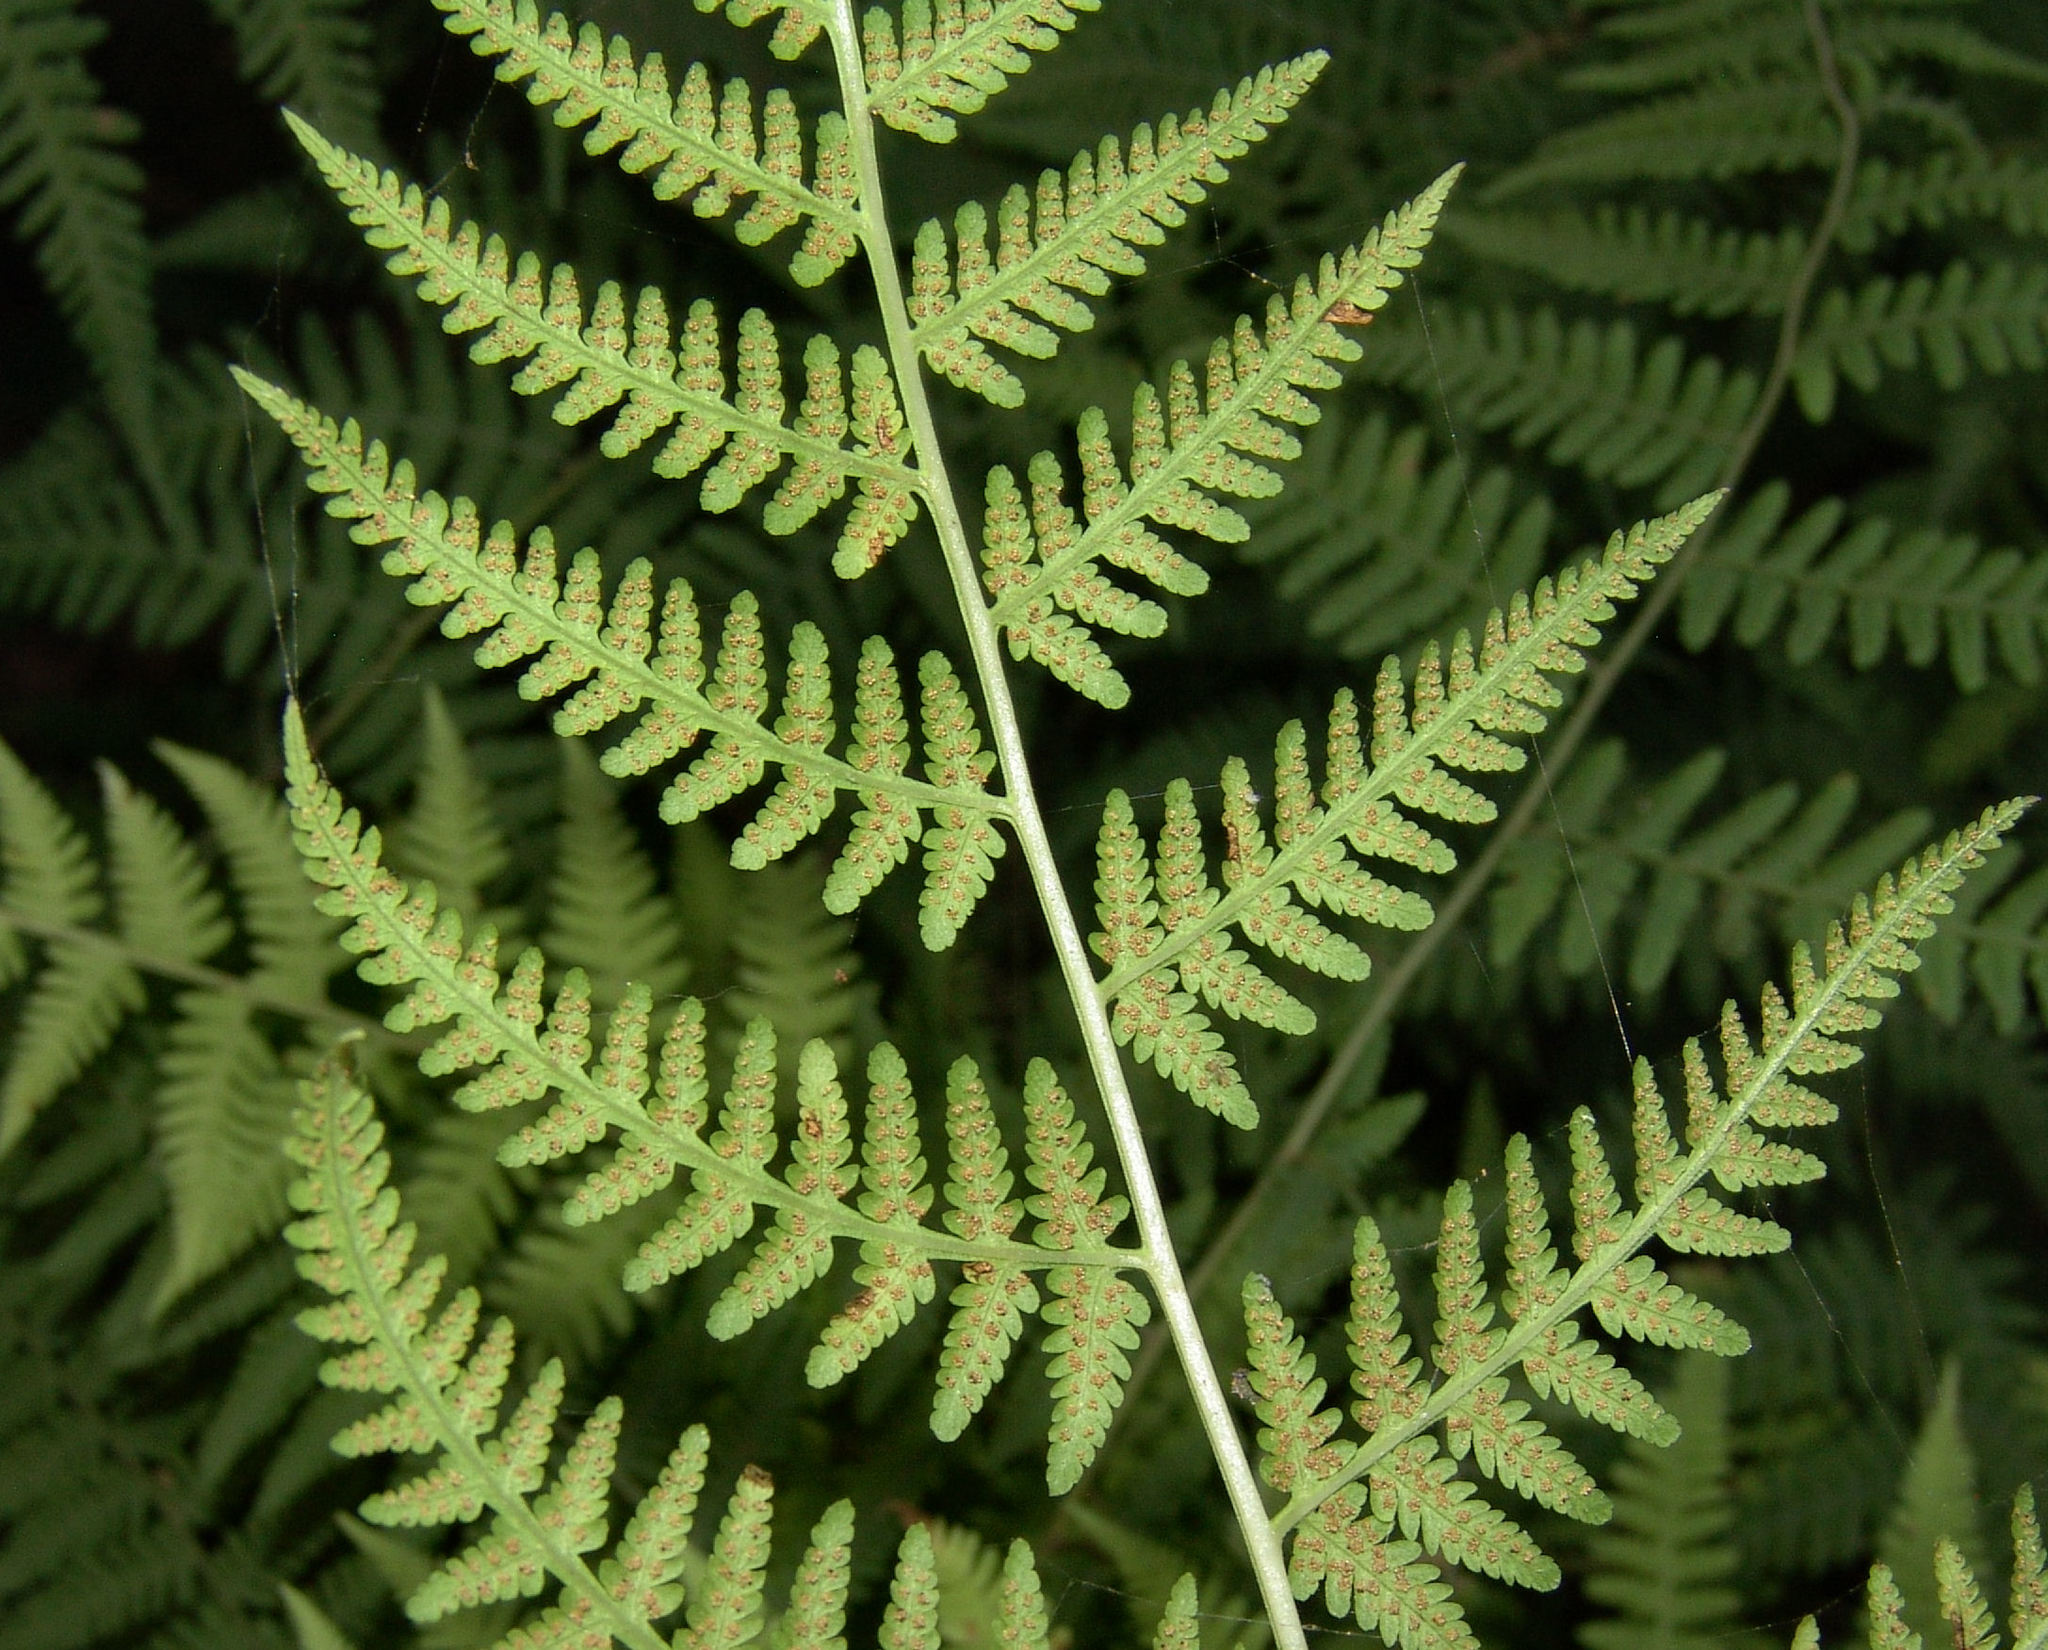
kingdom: Plantae
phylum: Tracheophyta
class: Polypodiopsida
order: Polypodiales
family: Thelypteridaceae
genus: Macrothelypteris
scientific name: Macrothelypteris torresiana
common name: Swordfern
